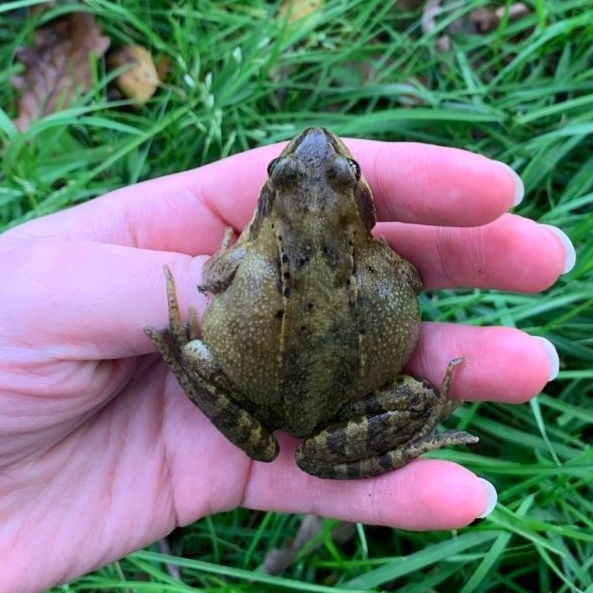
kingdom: Animalia
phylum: Chordata
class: Amphibia
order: Anura
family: Ranidae
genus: Rana
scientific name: Rana temporaria
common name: Common frog
